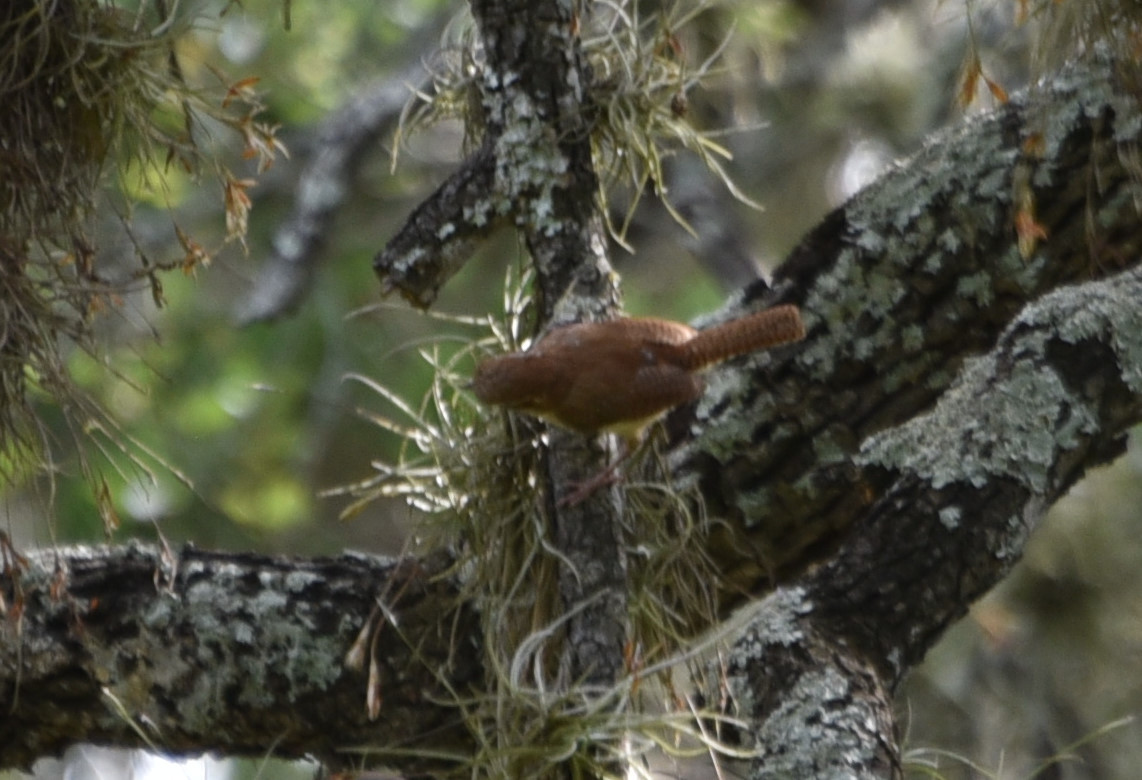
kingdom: Animalia
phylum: Chordata
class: Aves
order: Passeriformes
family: Troglodytidae
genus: Thryothorus
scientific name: Thryothorus ludovicianus
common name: Carolina wren
